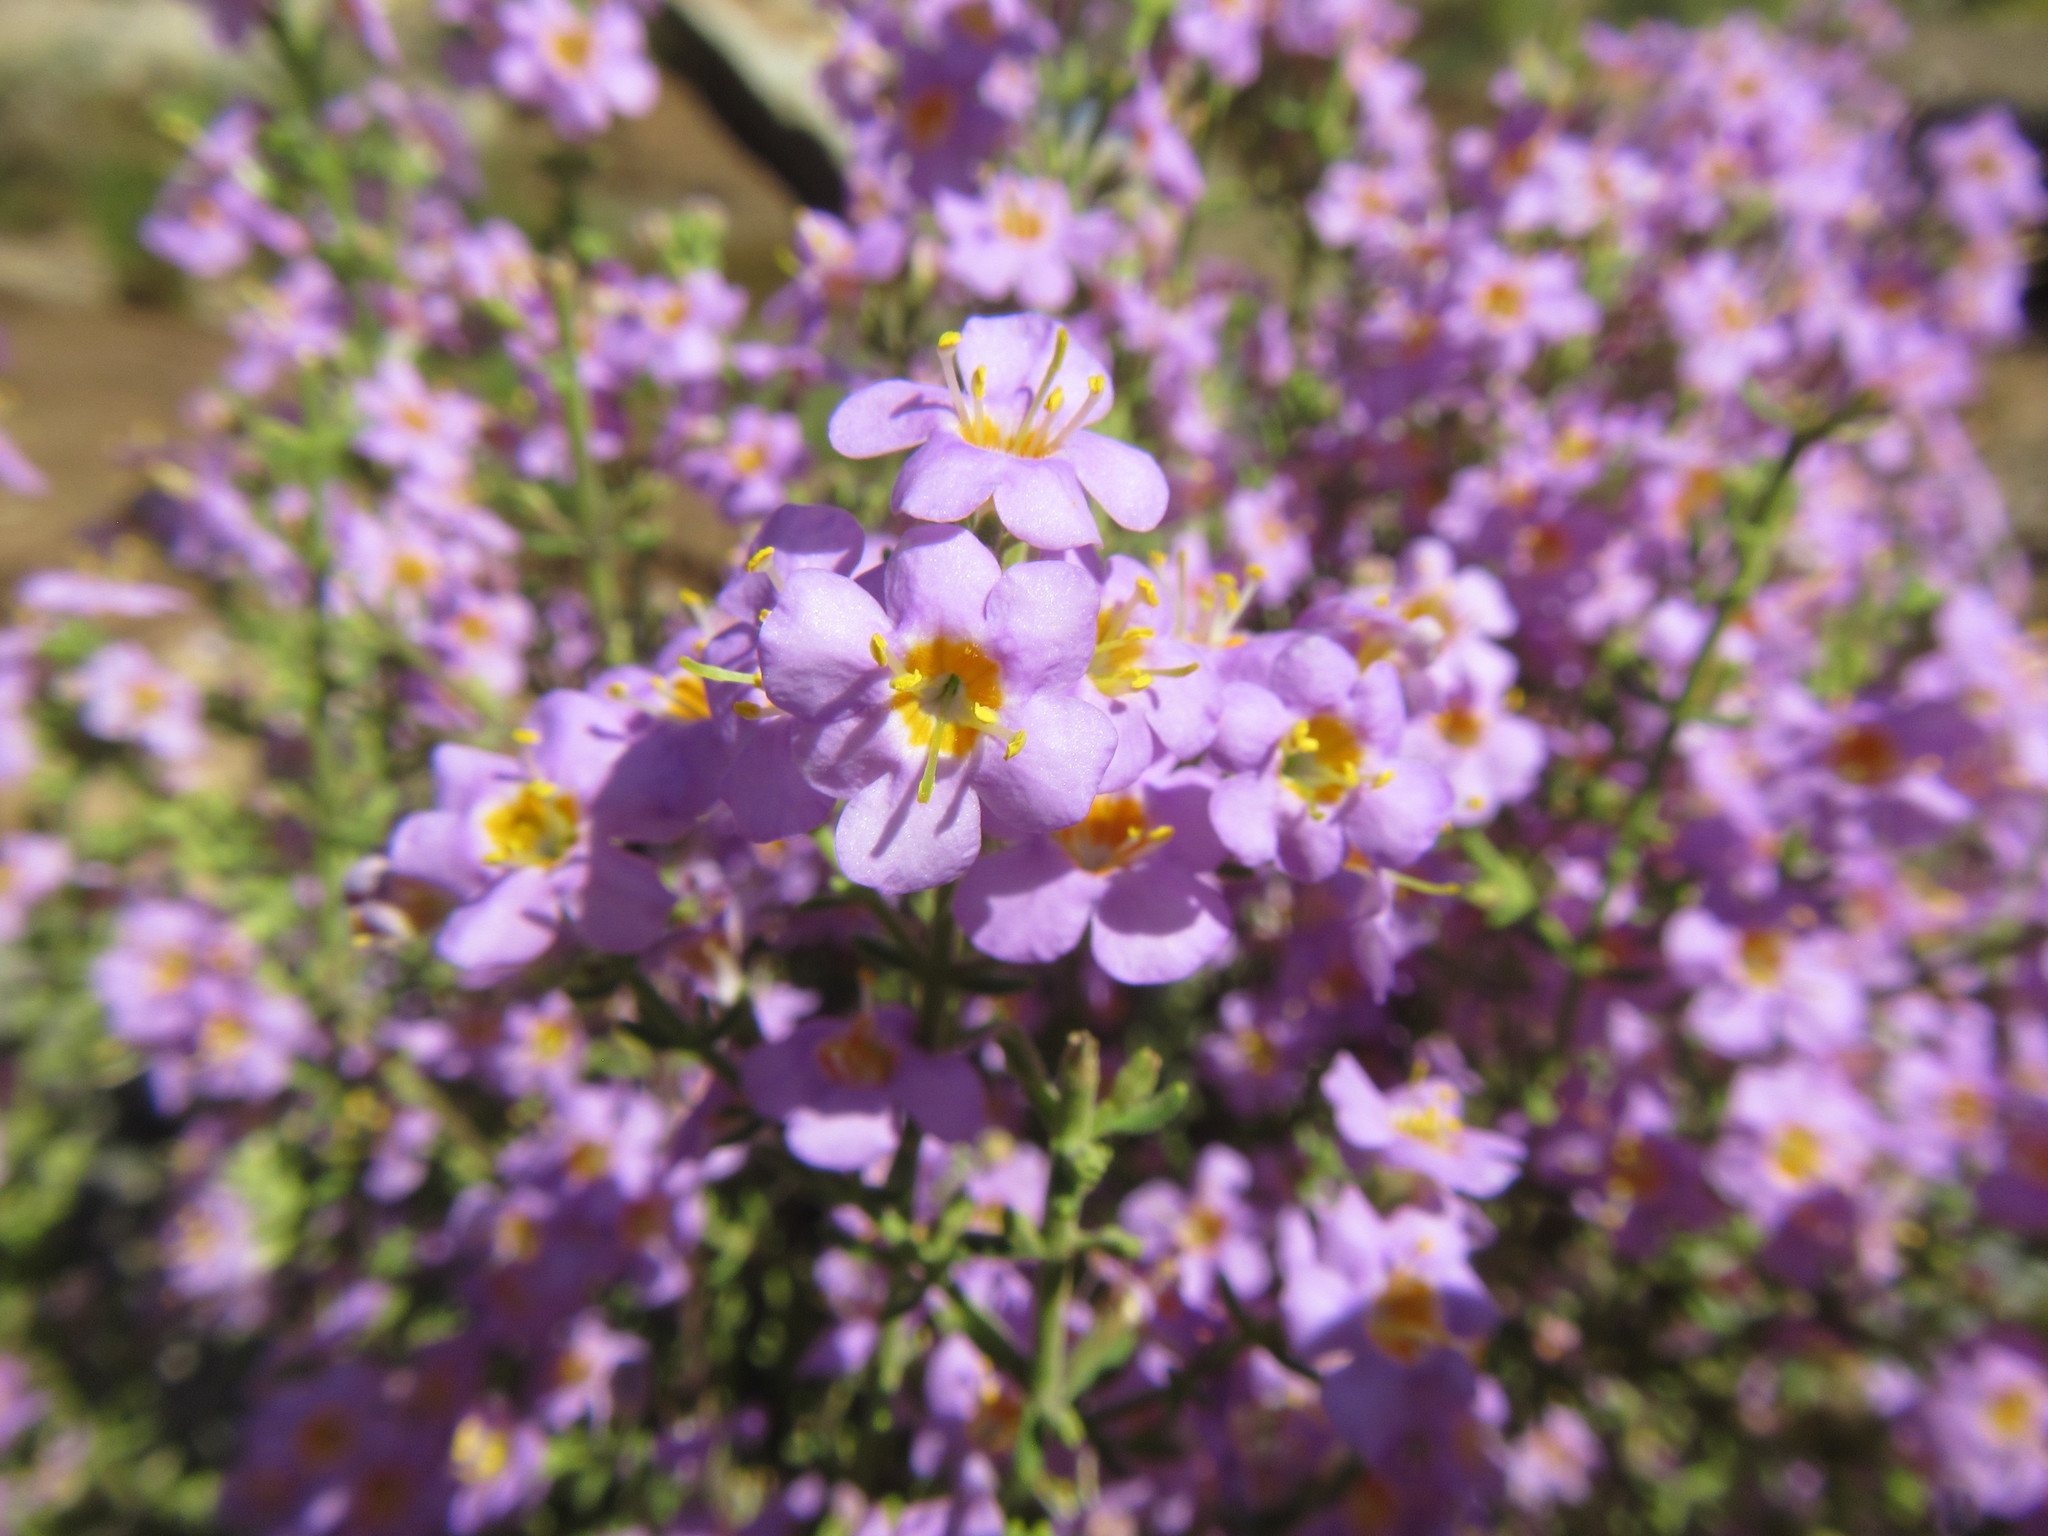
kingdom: Plantae
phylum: Tracheophyta
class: Magnoliopsida
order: Lamiales
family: Scrophulariaceae
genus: Chaenostoma
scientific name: Chaenostoma revolutum
